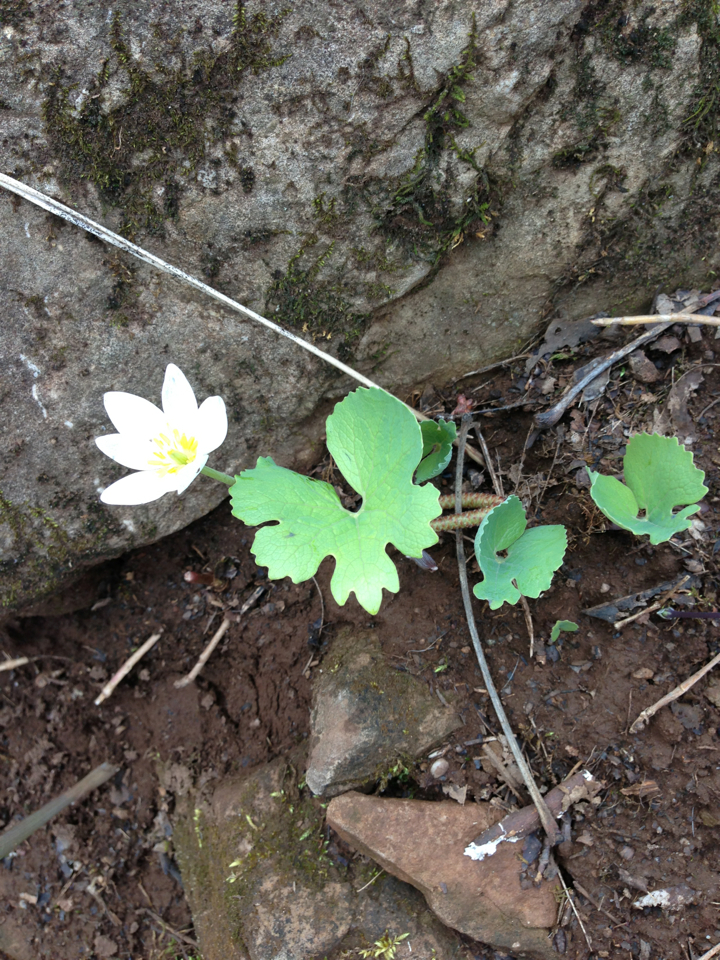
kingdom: Plantae
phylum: Tracheophyta
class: Magnoliopsida
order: Ranunculales
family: Papaveraceae
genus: Sanguinaria
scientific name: Sanguinaria canadensis
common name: Bloodroot
